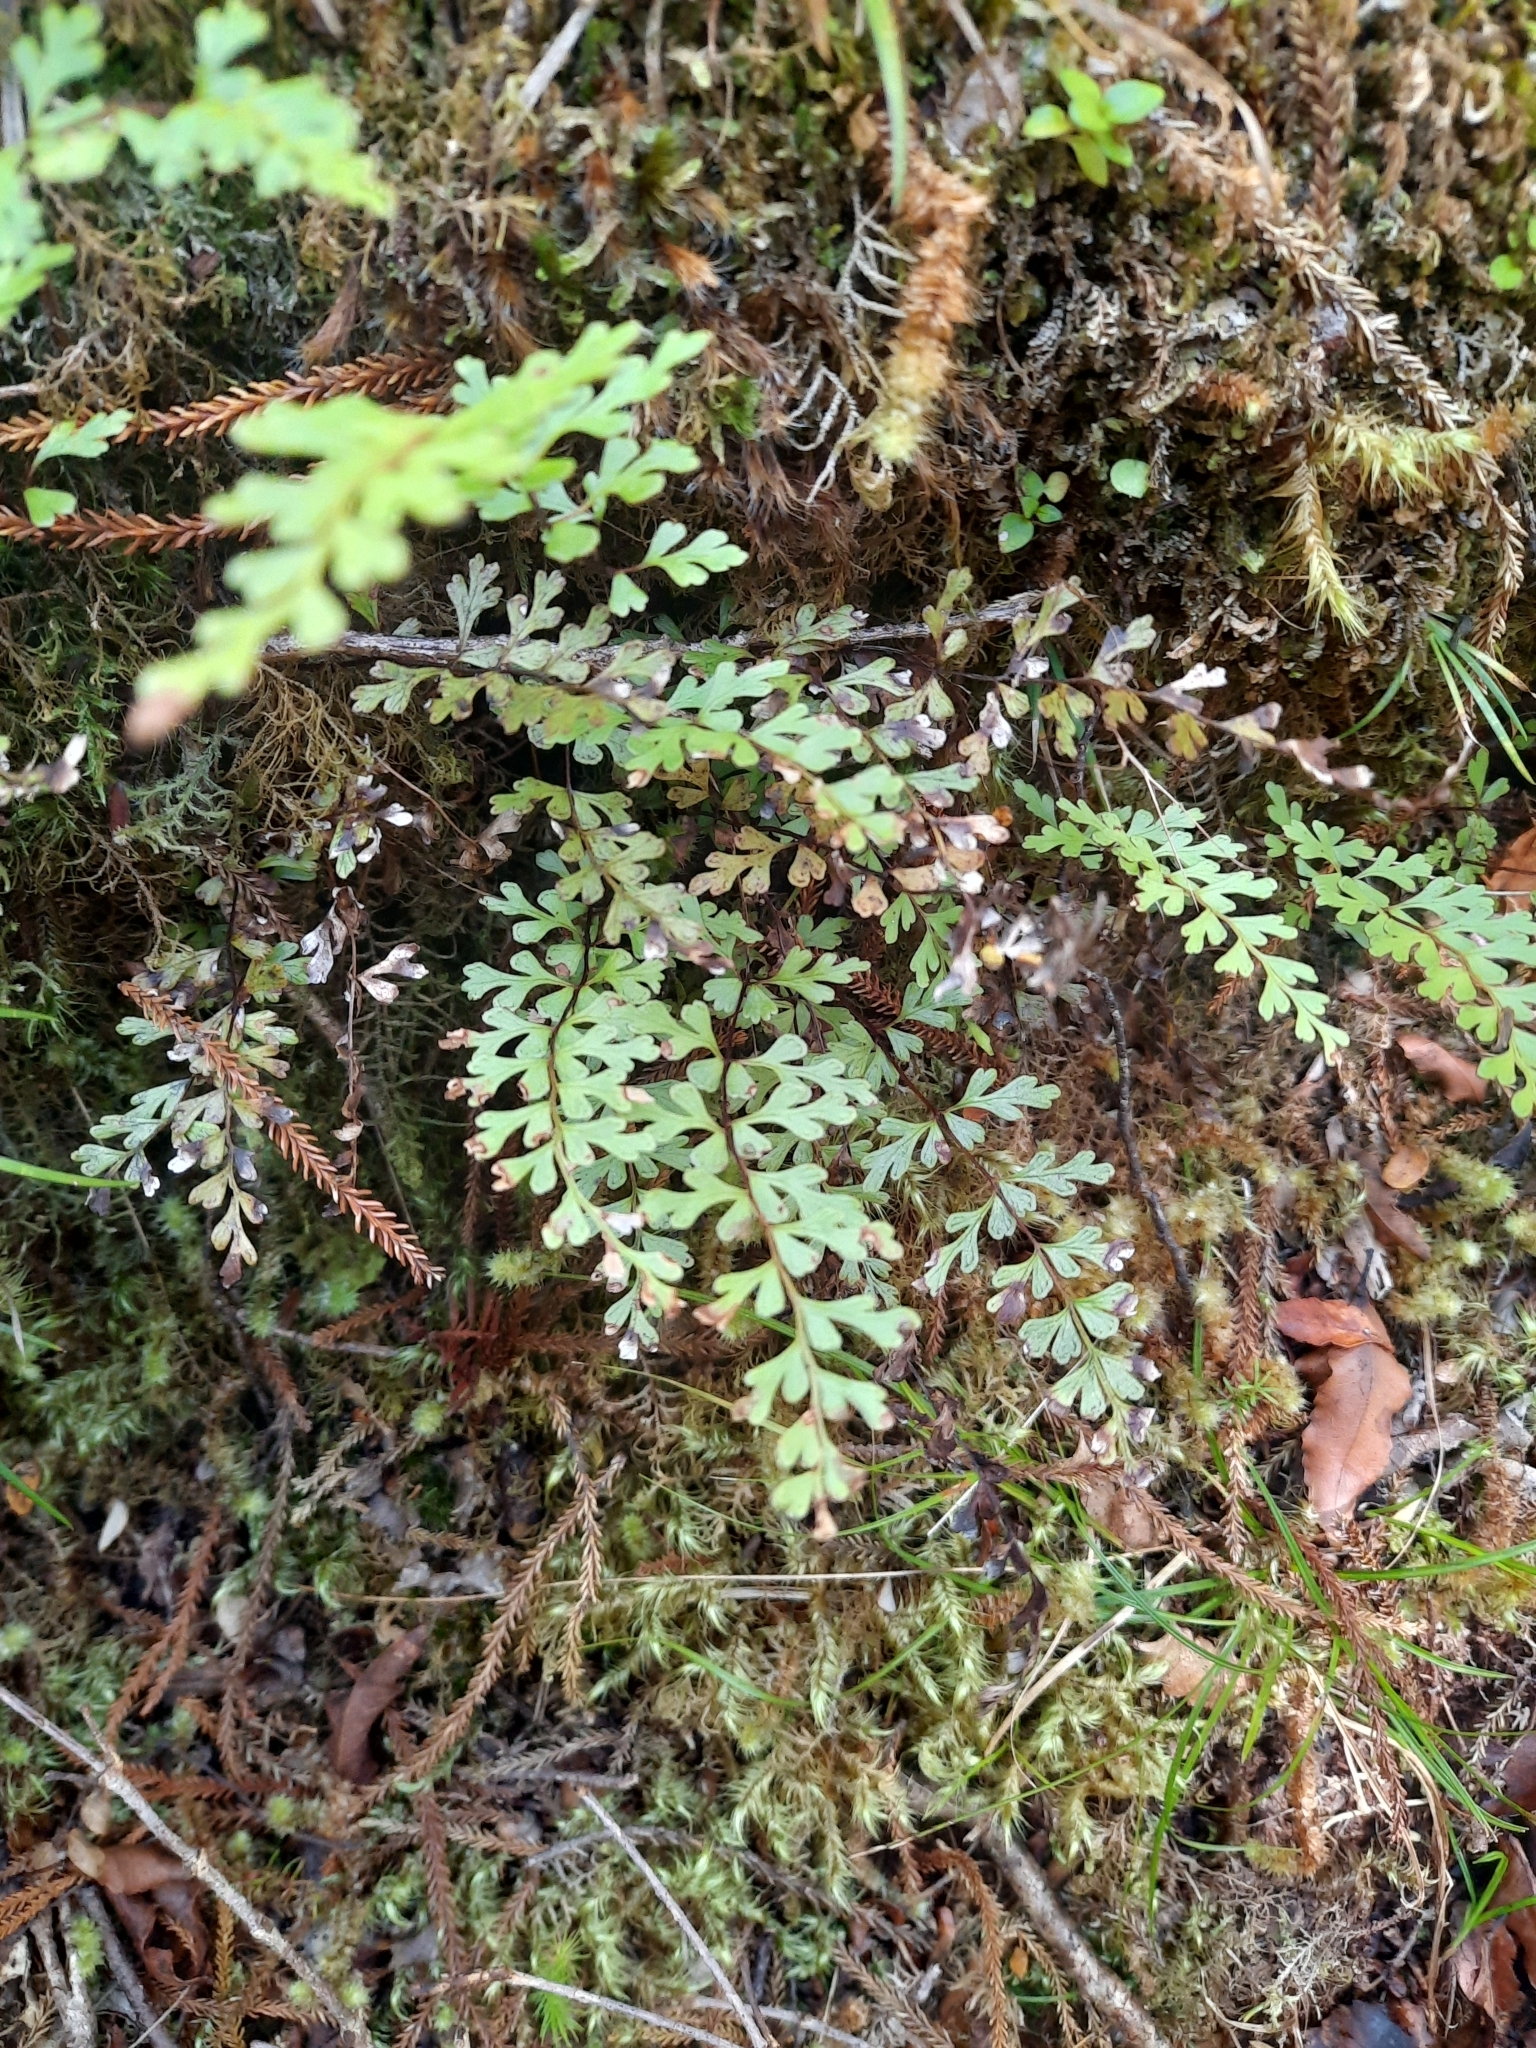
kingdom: Plantae
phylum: Tracheophyta
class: Polypodiopsida
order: Polypodiales
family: Lindsaeaceae
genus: Lindsaea
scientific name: Lindsaea trichomanoides
